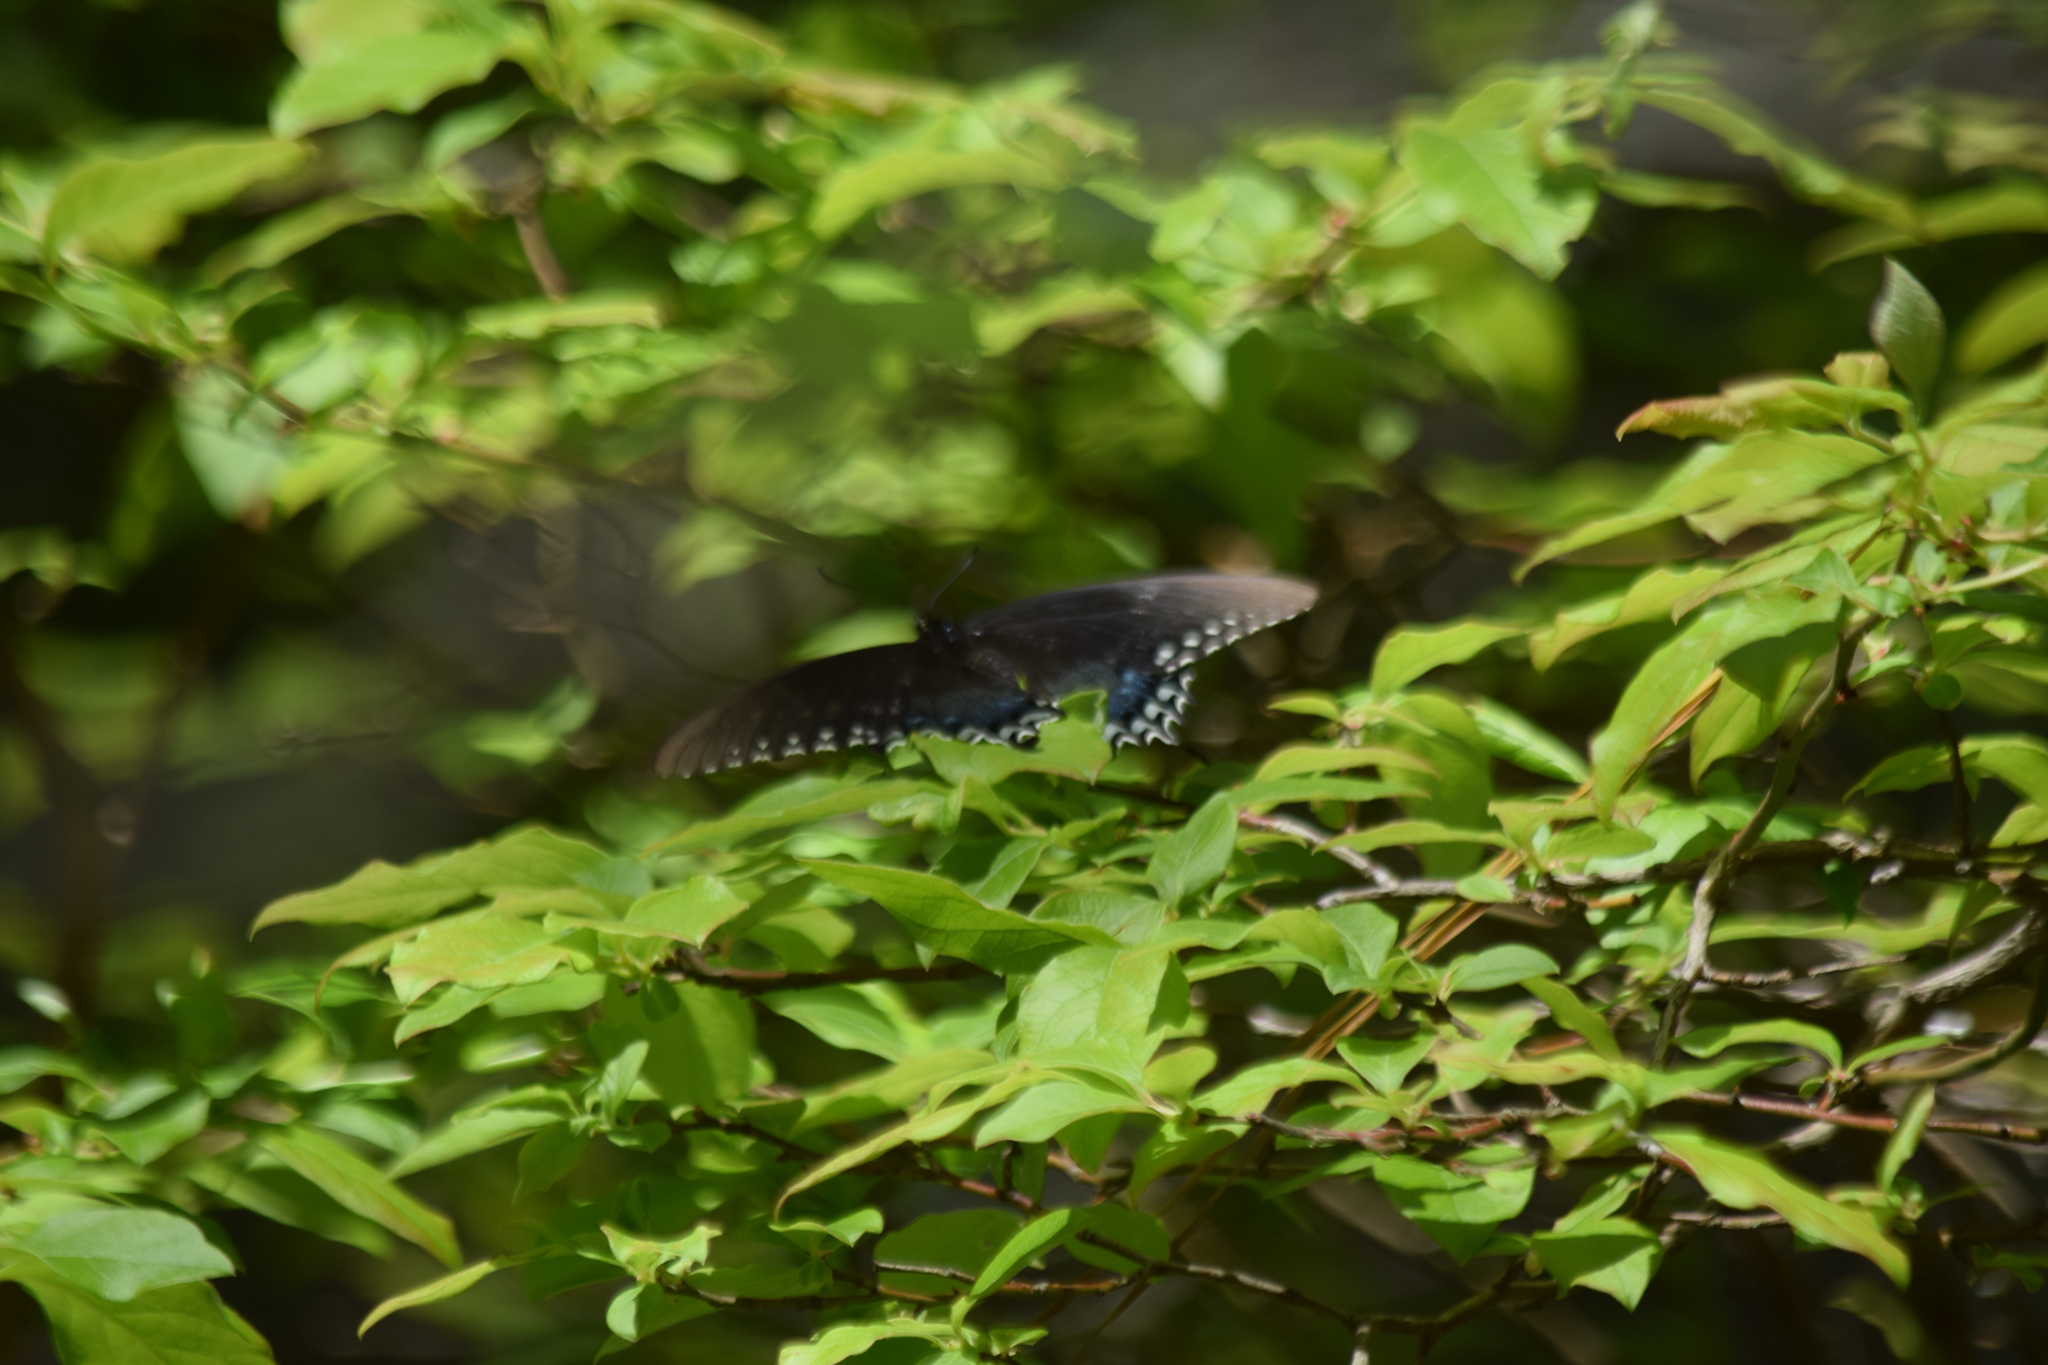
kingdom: Animalia
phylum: Arthropoda
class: Insecta
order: Lepidoptera
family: Papilionidae
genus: Papilio
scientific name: Papilio troilus
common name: Spicebush swallowtail
